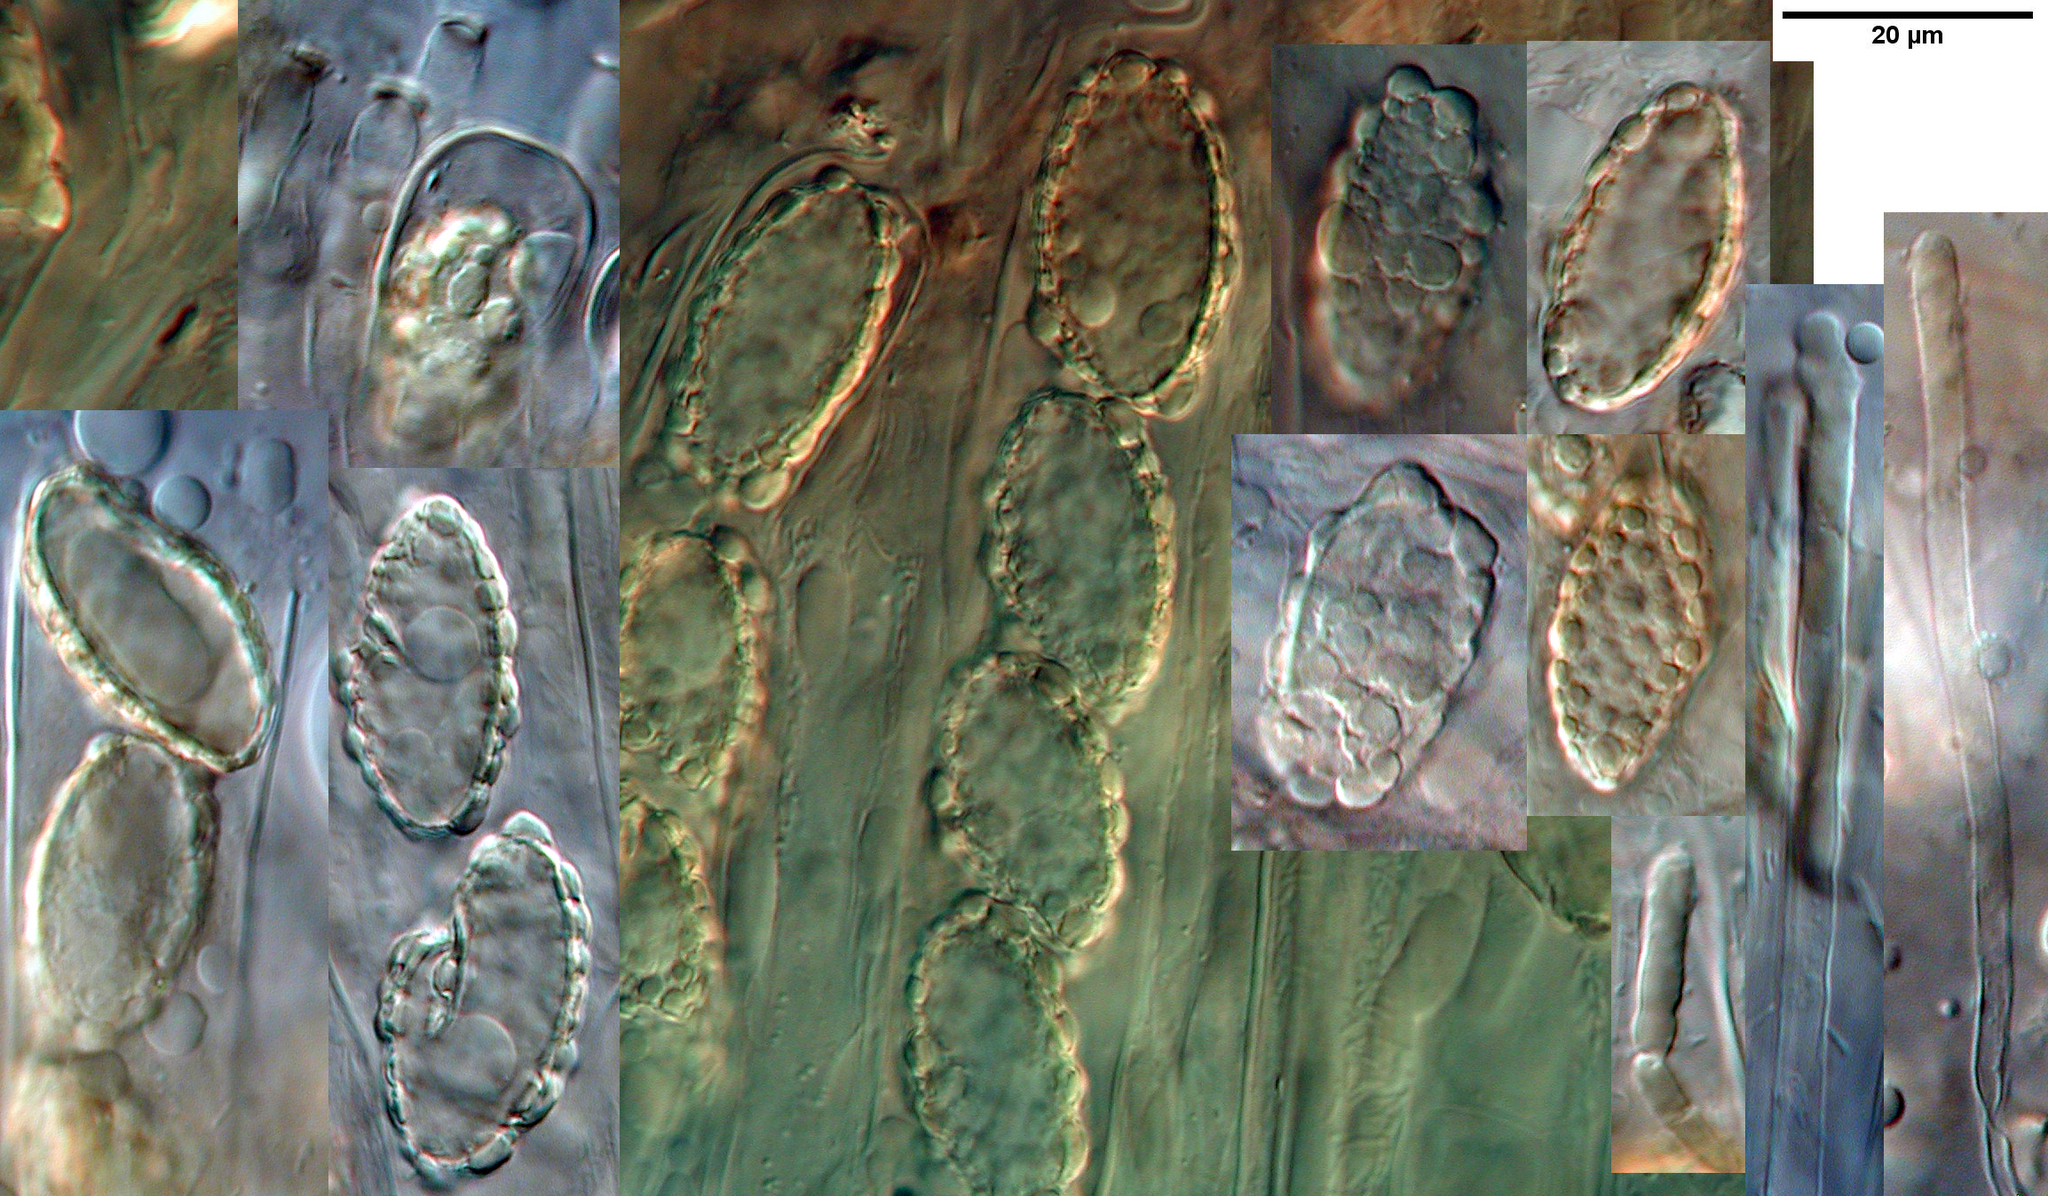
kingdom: Fungi
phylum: Ascomycota
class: Pezizomycetes
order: Pezizales
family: Pyronemataceae
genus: Aleurina
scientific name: Aleurina magnicellula
